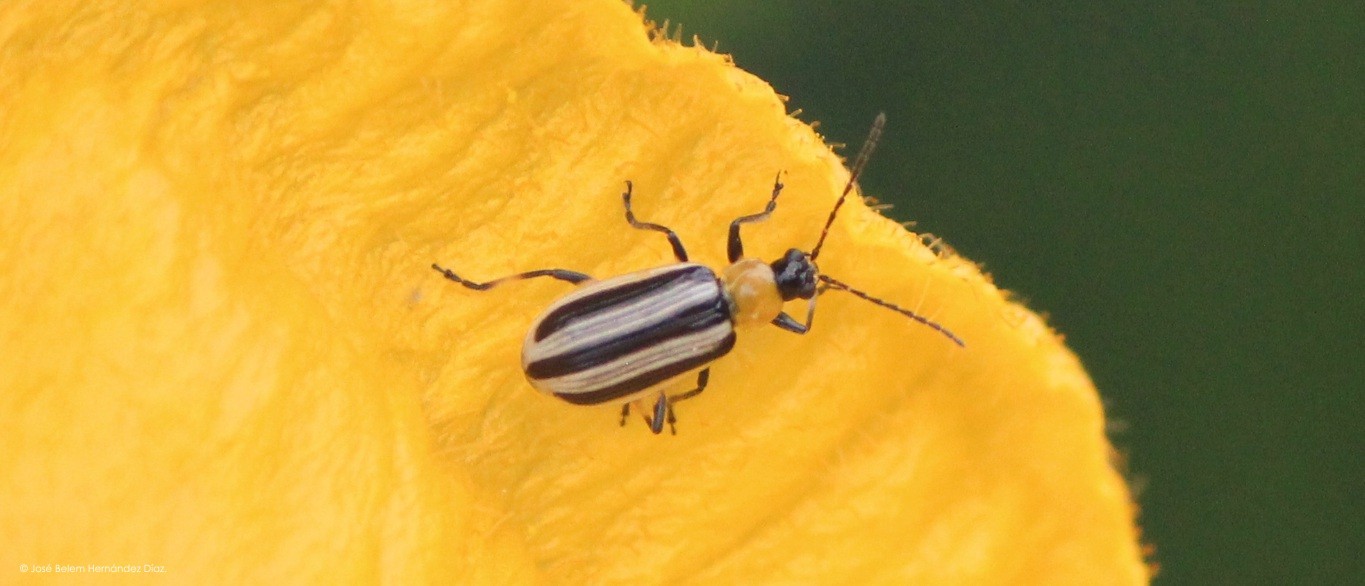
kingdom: Animalia
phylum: Arthropoda
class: Insecta
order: Coleoptera
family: Chrysomelidae
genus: Acalymma
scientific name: Acalymma trivittatum
